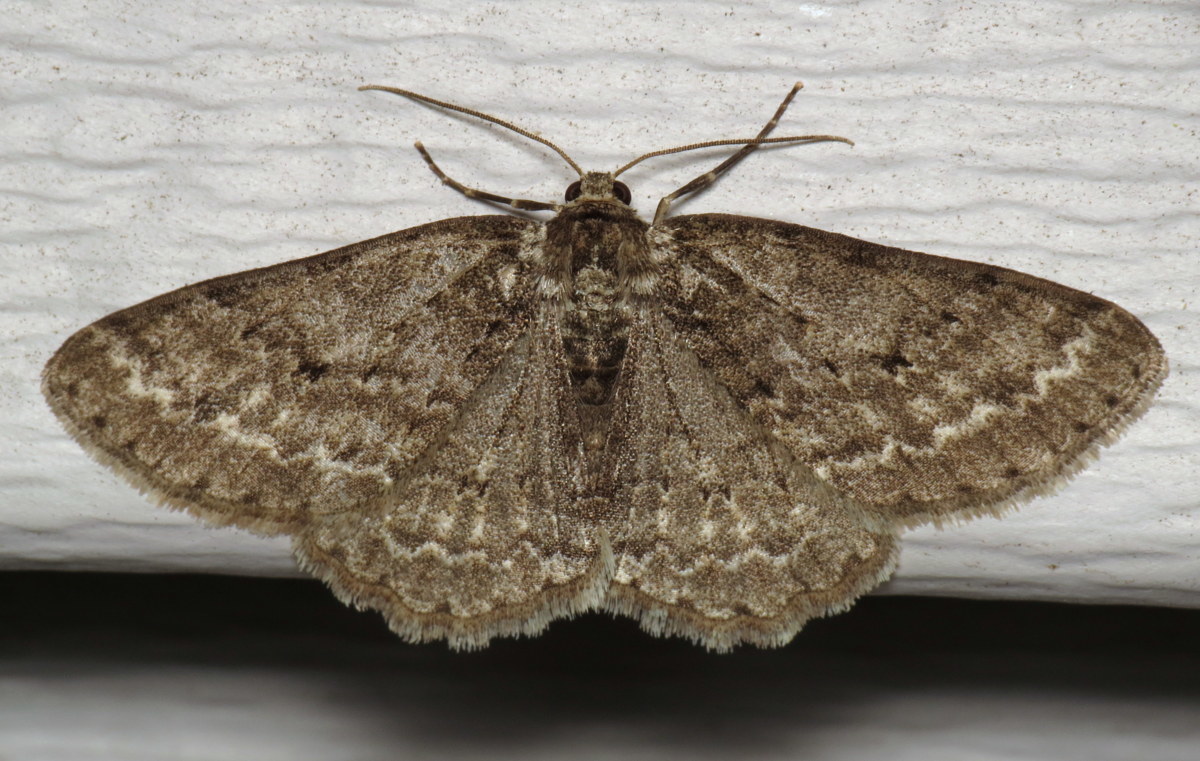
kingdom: Animalia
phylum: Arthropoda
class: Insecta
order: Lepidoptera
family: Geometridae
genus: Ectropis
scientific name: Ectropis crepuscularia
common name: Engrailed
